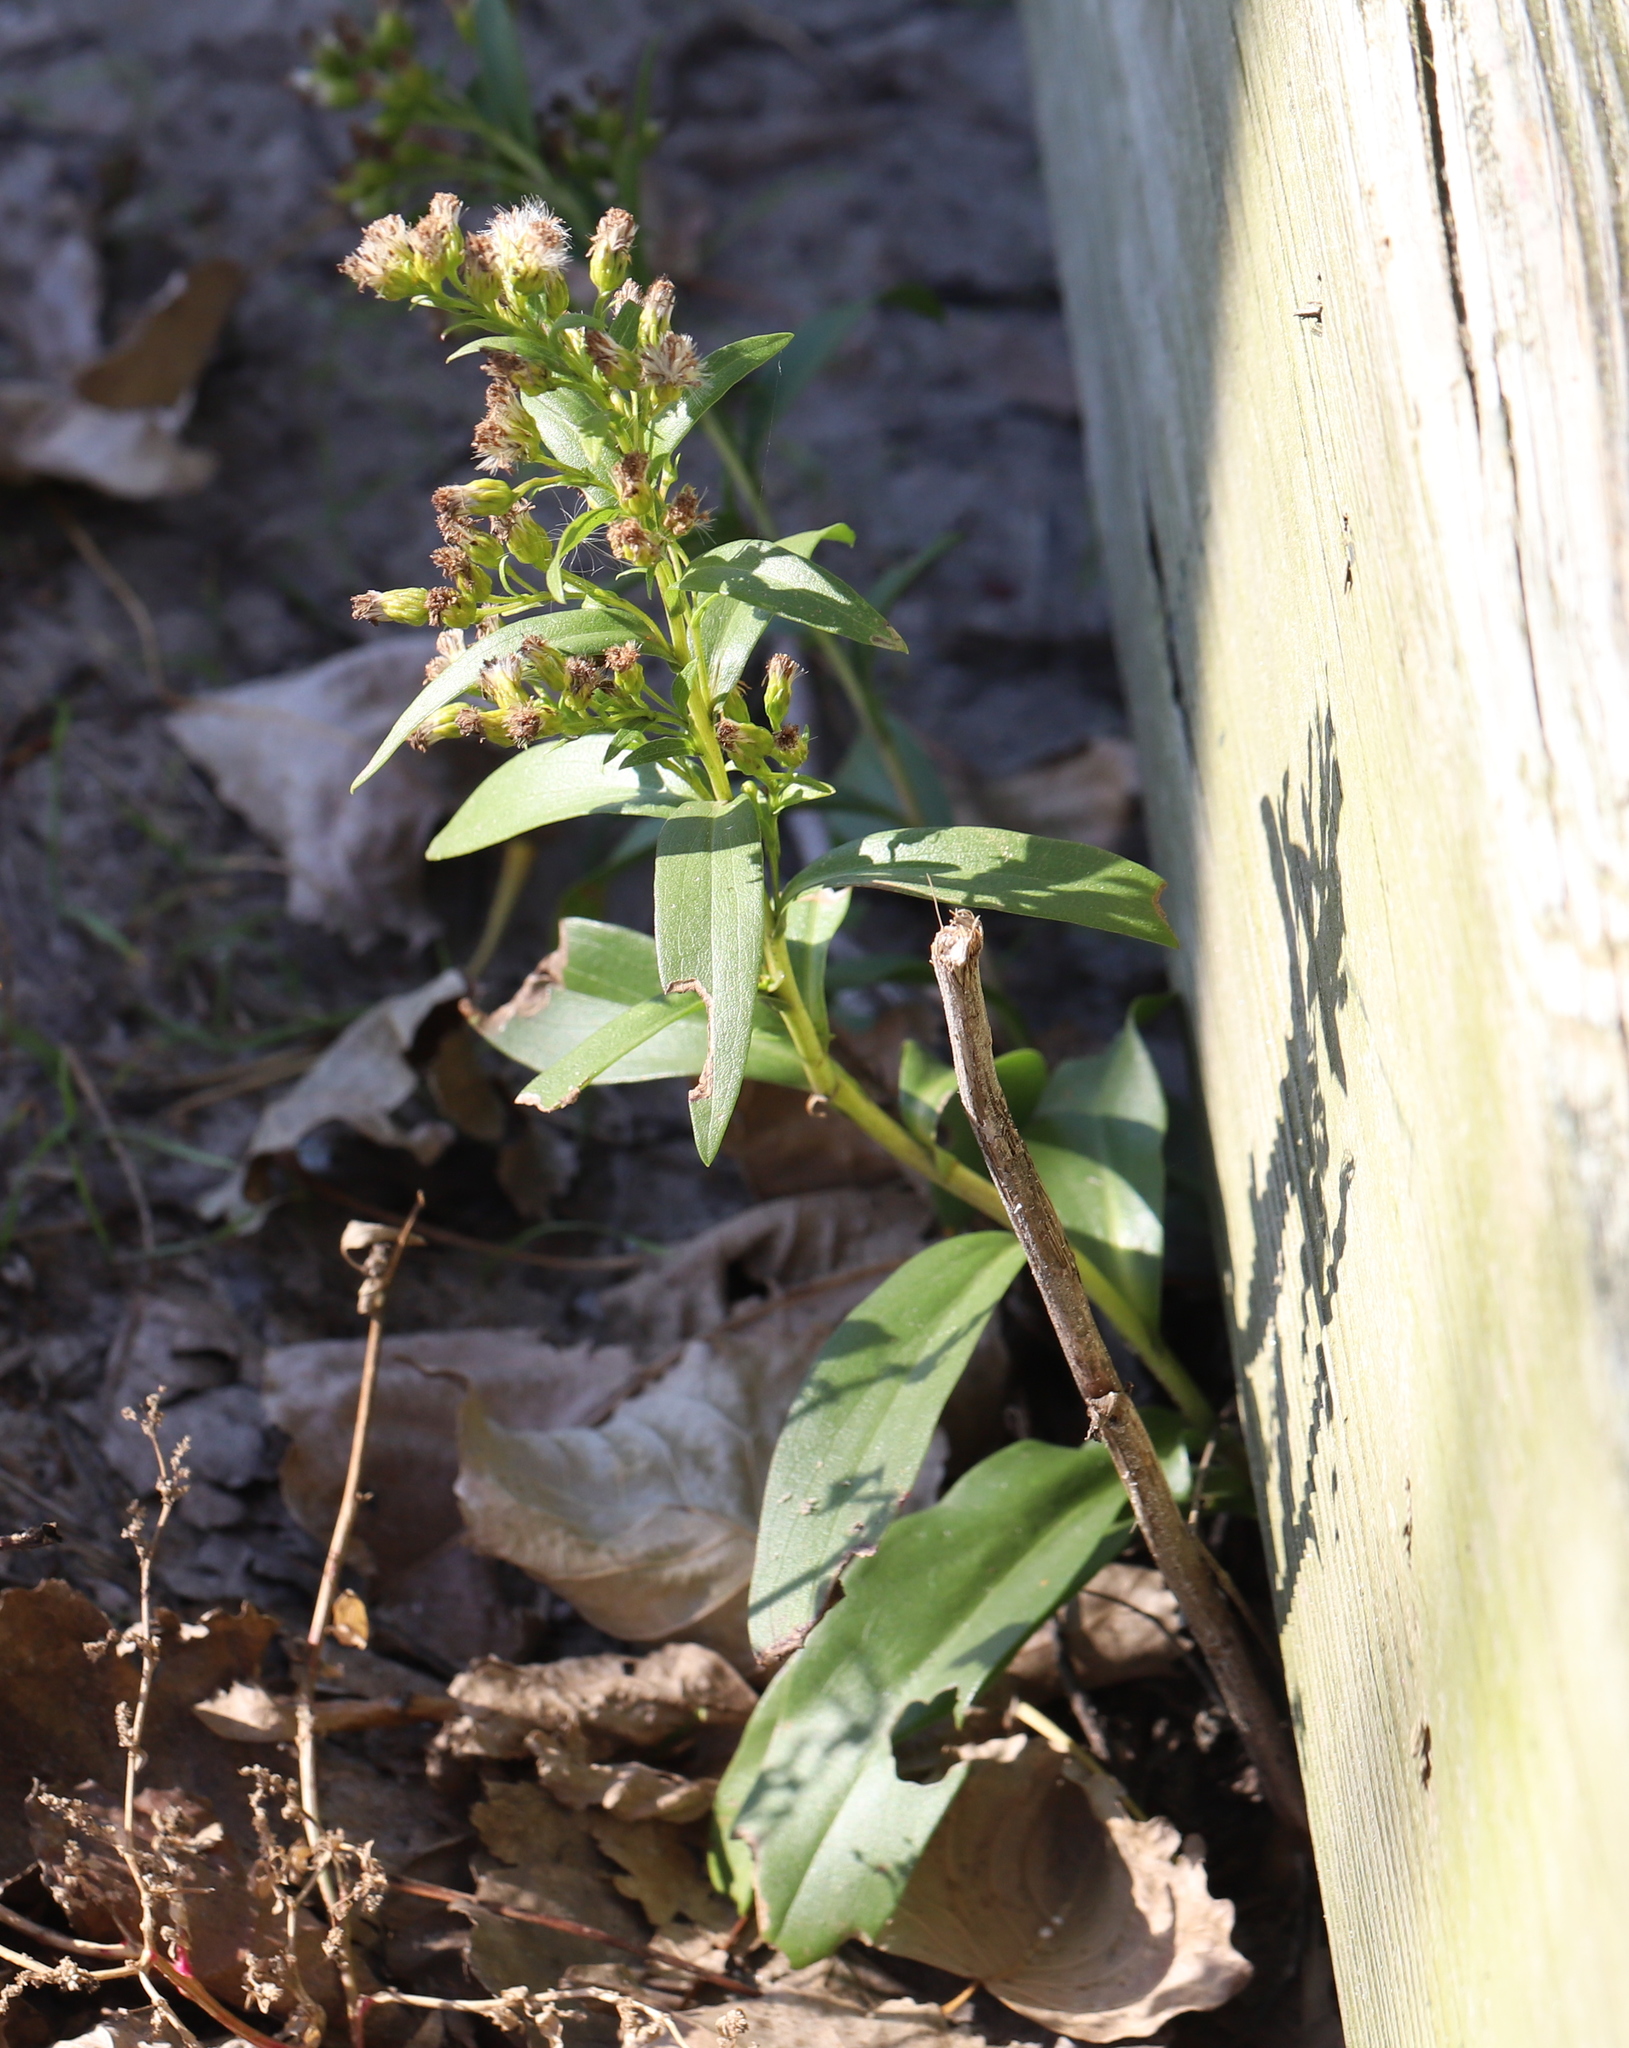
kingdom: Plantae
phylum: Tracheophyta
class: Magnoliopsida
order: Asterales
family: Asteraceae
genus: Solidago
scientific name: Solidago sempervirens
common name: Salt-marsh goldenrod
